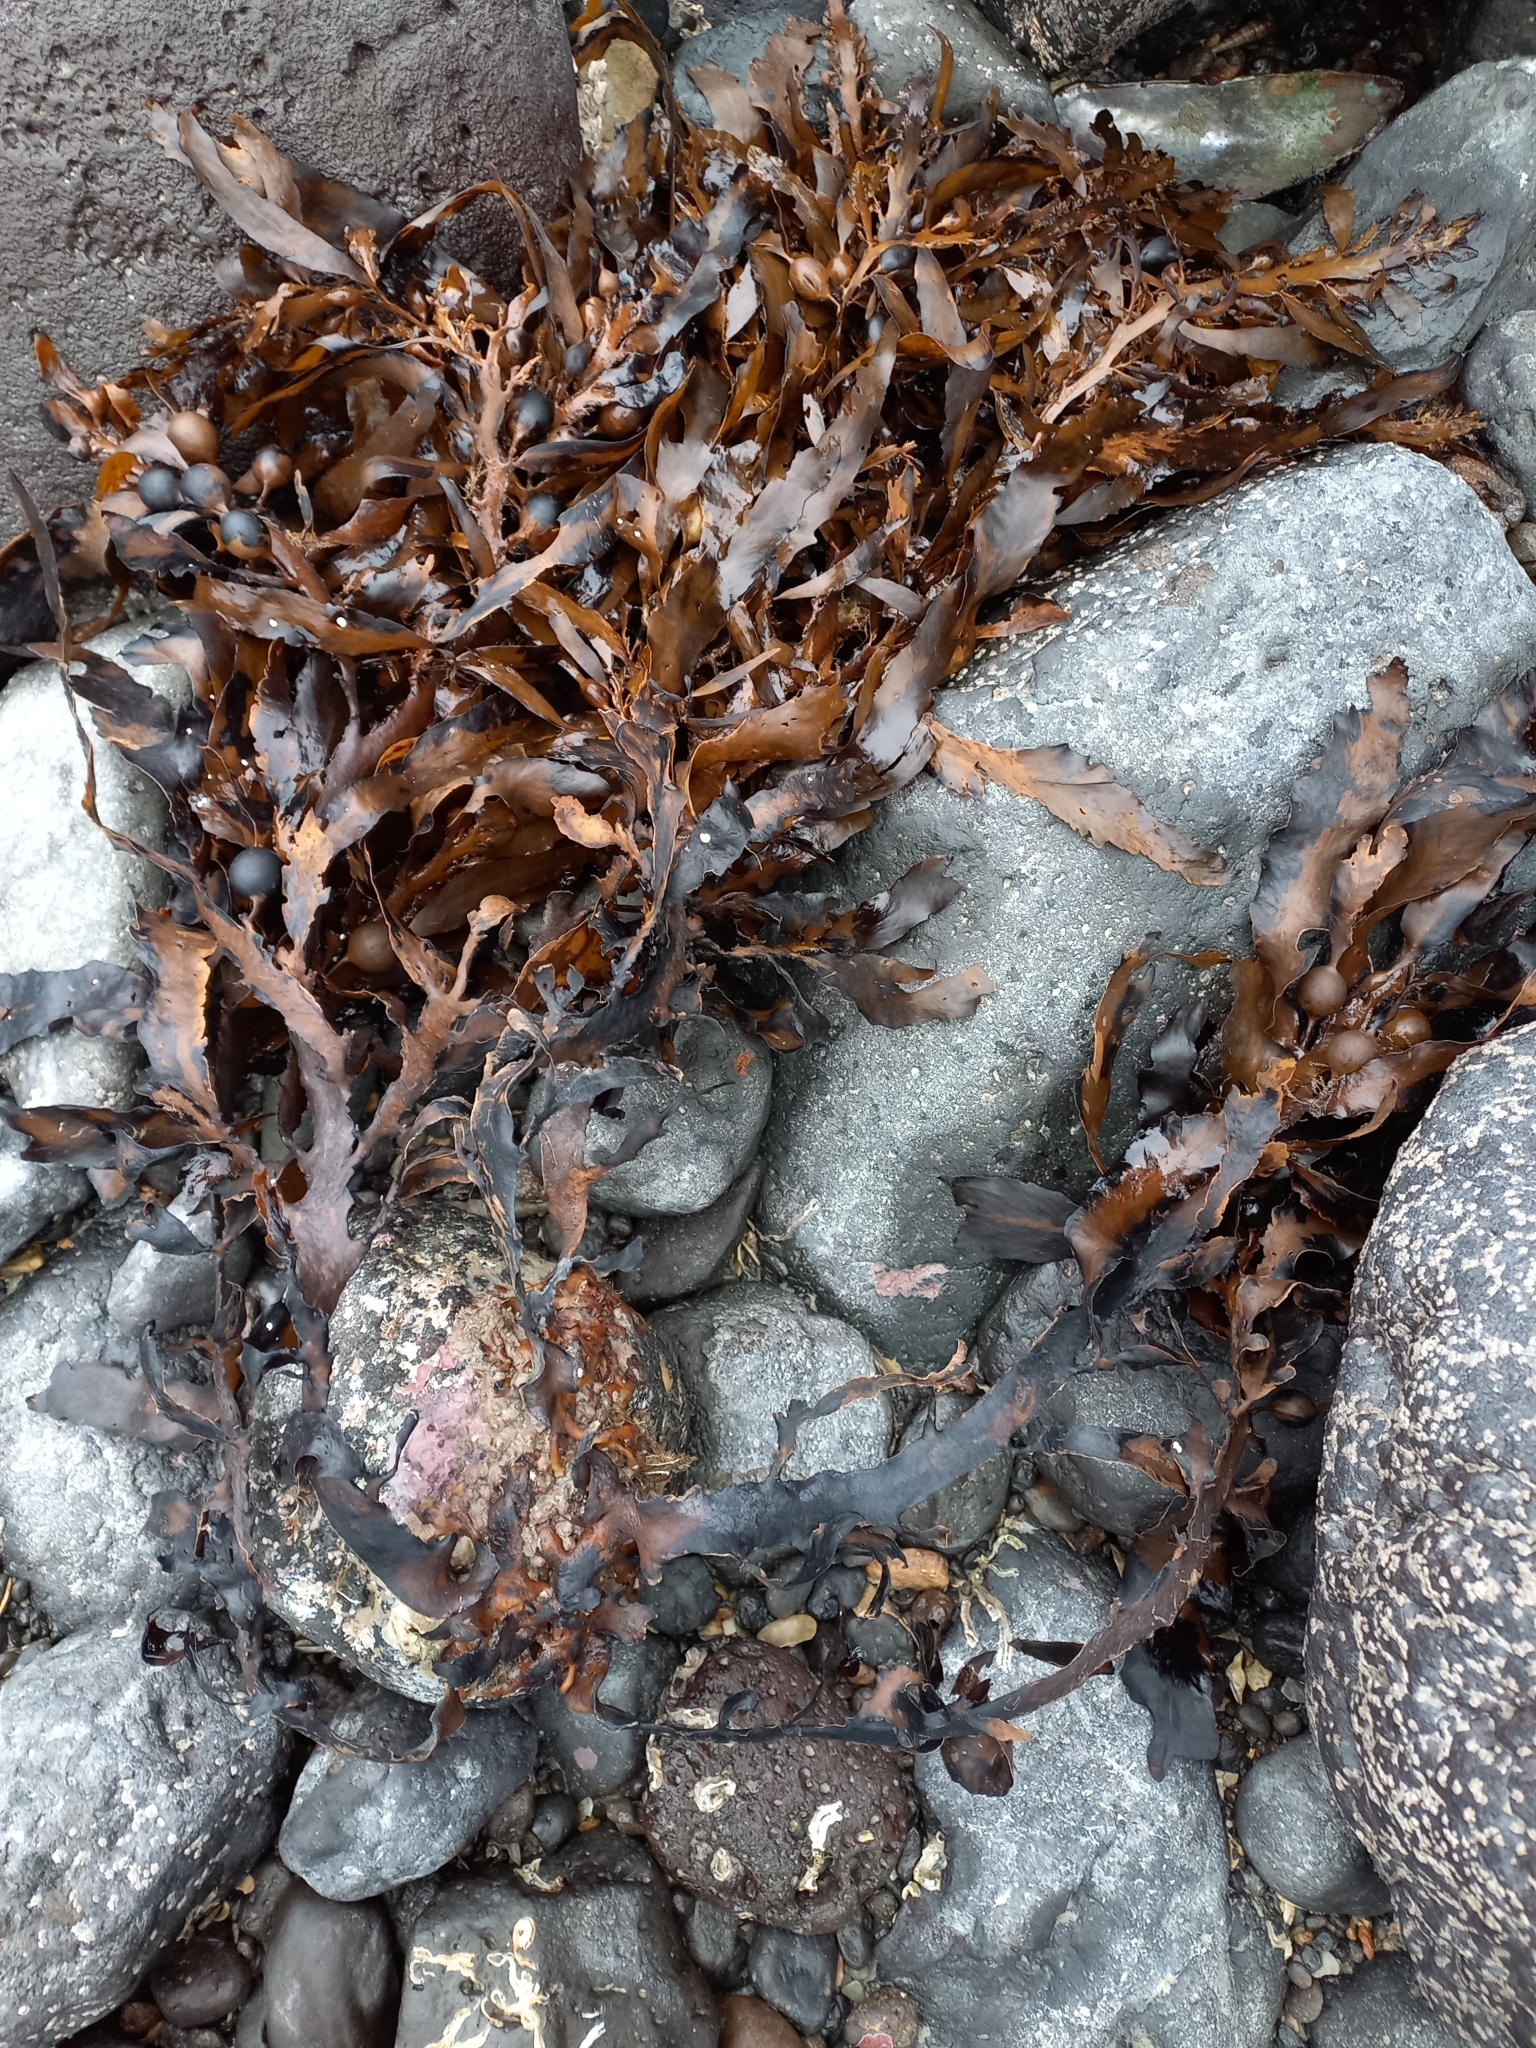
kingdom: Chromista
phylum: Ochrophyta
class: Phaeophyceae
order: Fucales
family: Sargassaceae
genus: Carpophyllum
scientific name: Carpophyllum maschalocarpum
